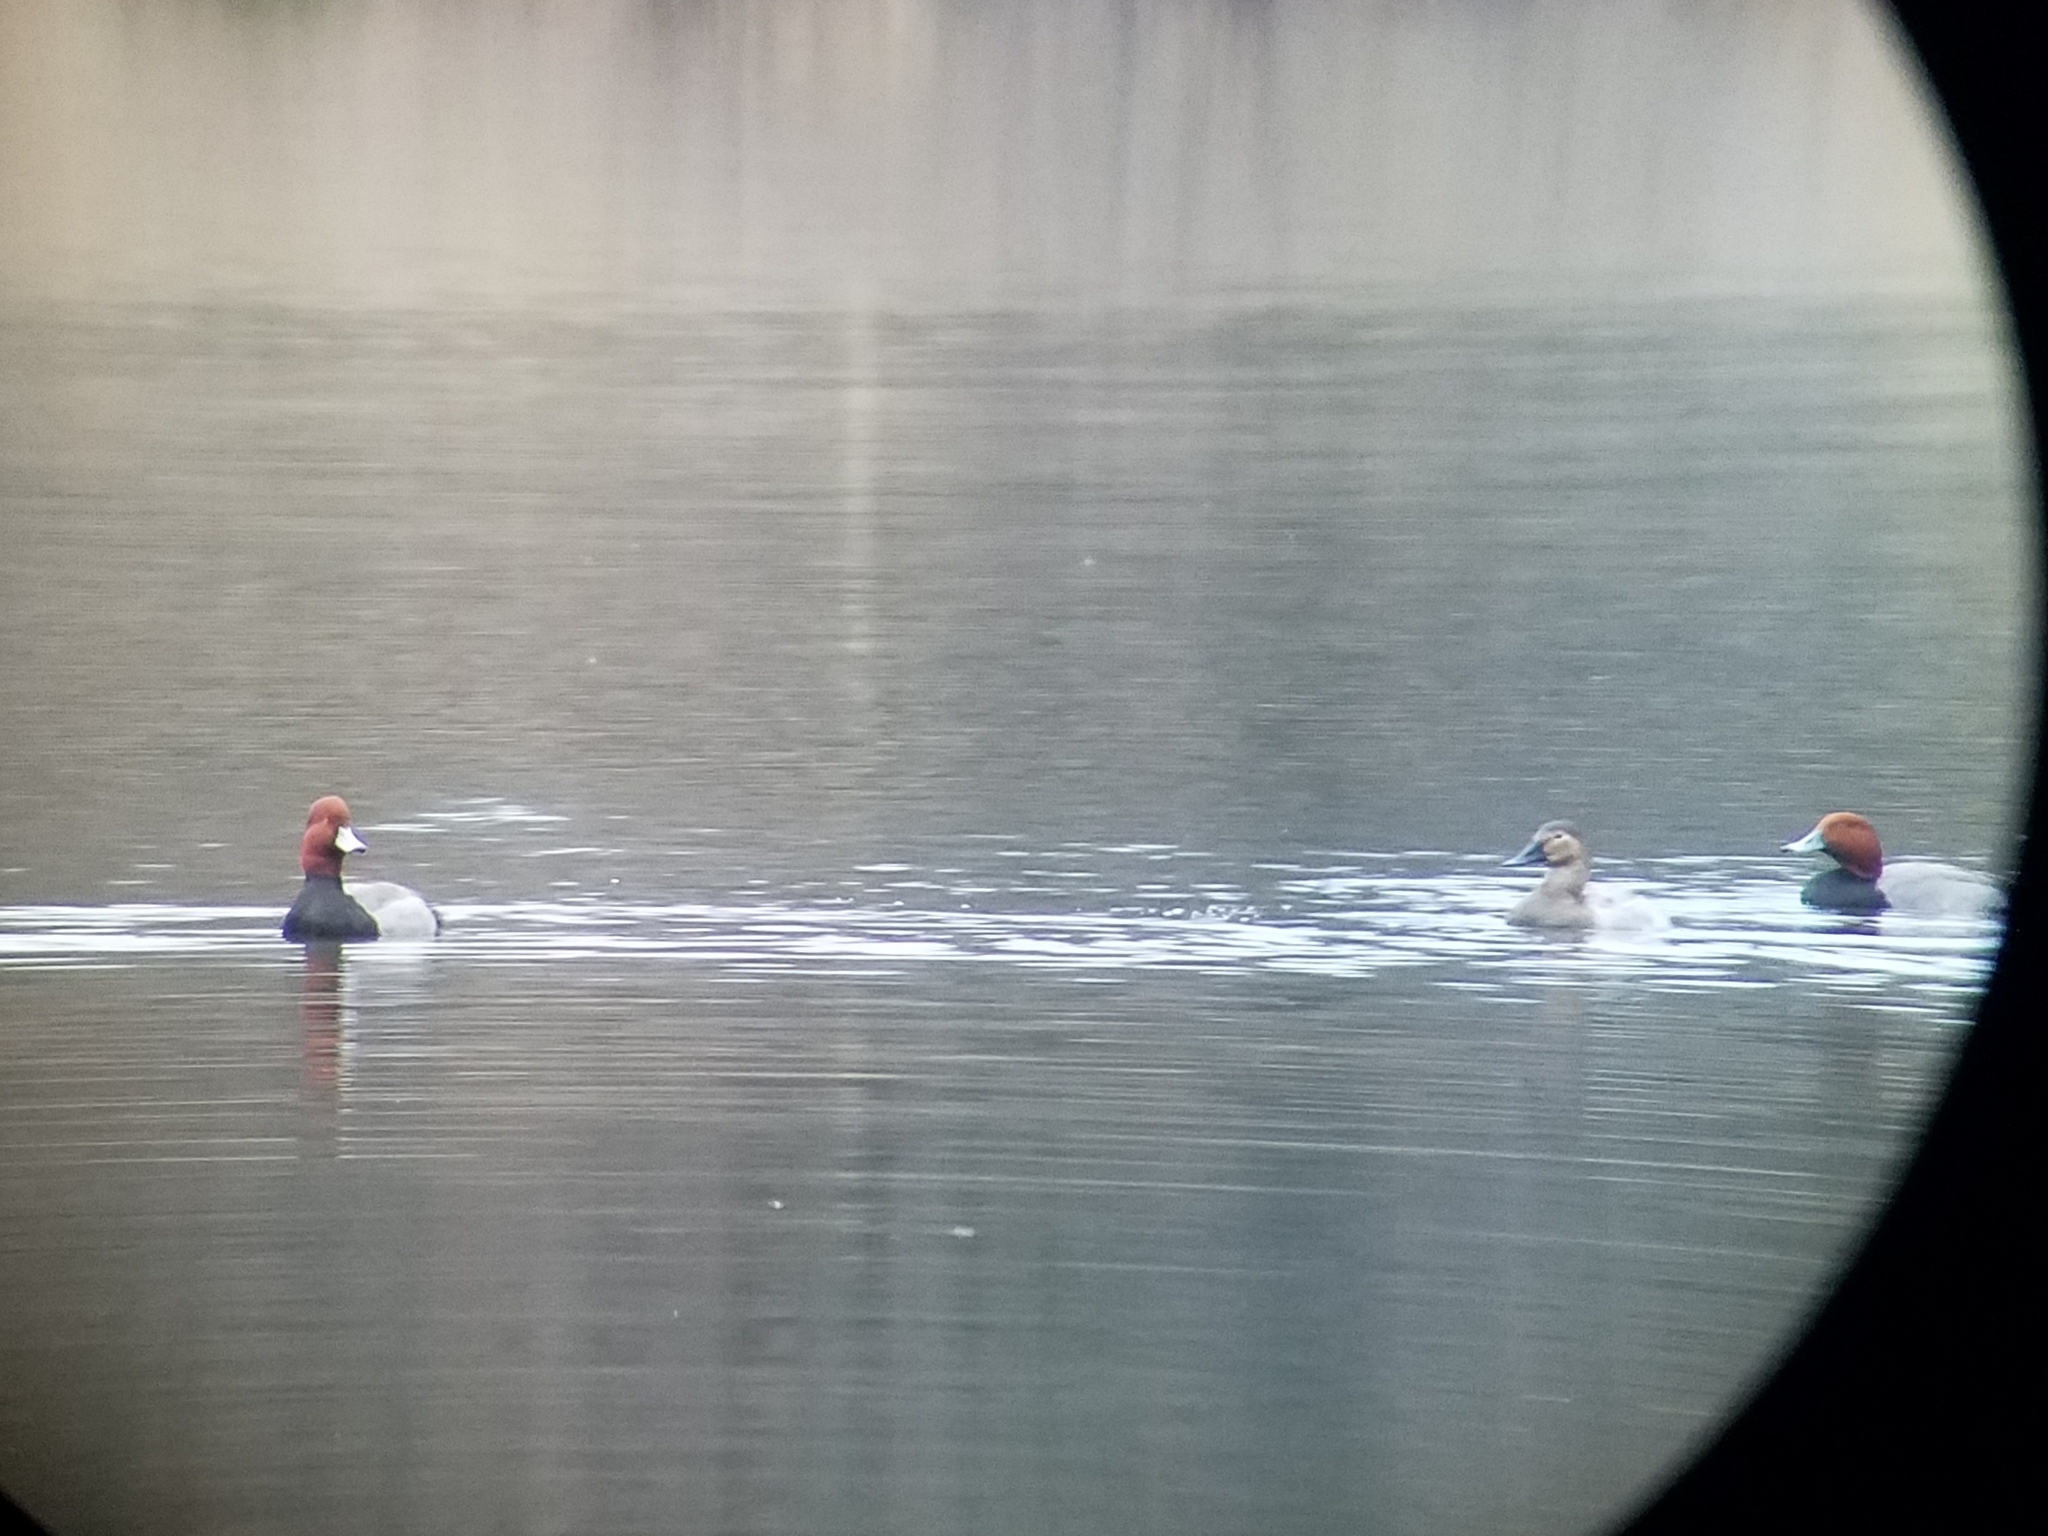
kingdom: Animalia
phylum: Chordata
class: Aves
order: Anseriformes
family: Anatidae
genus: Aythya
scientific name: Aythya americana
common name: Redhead
